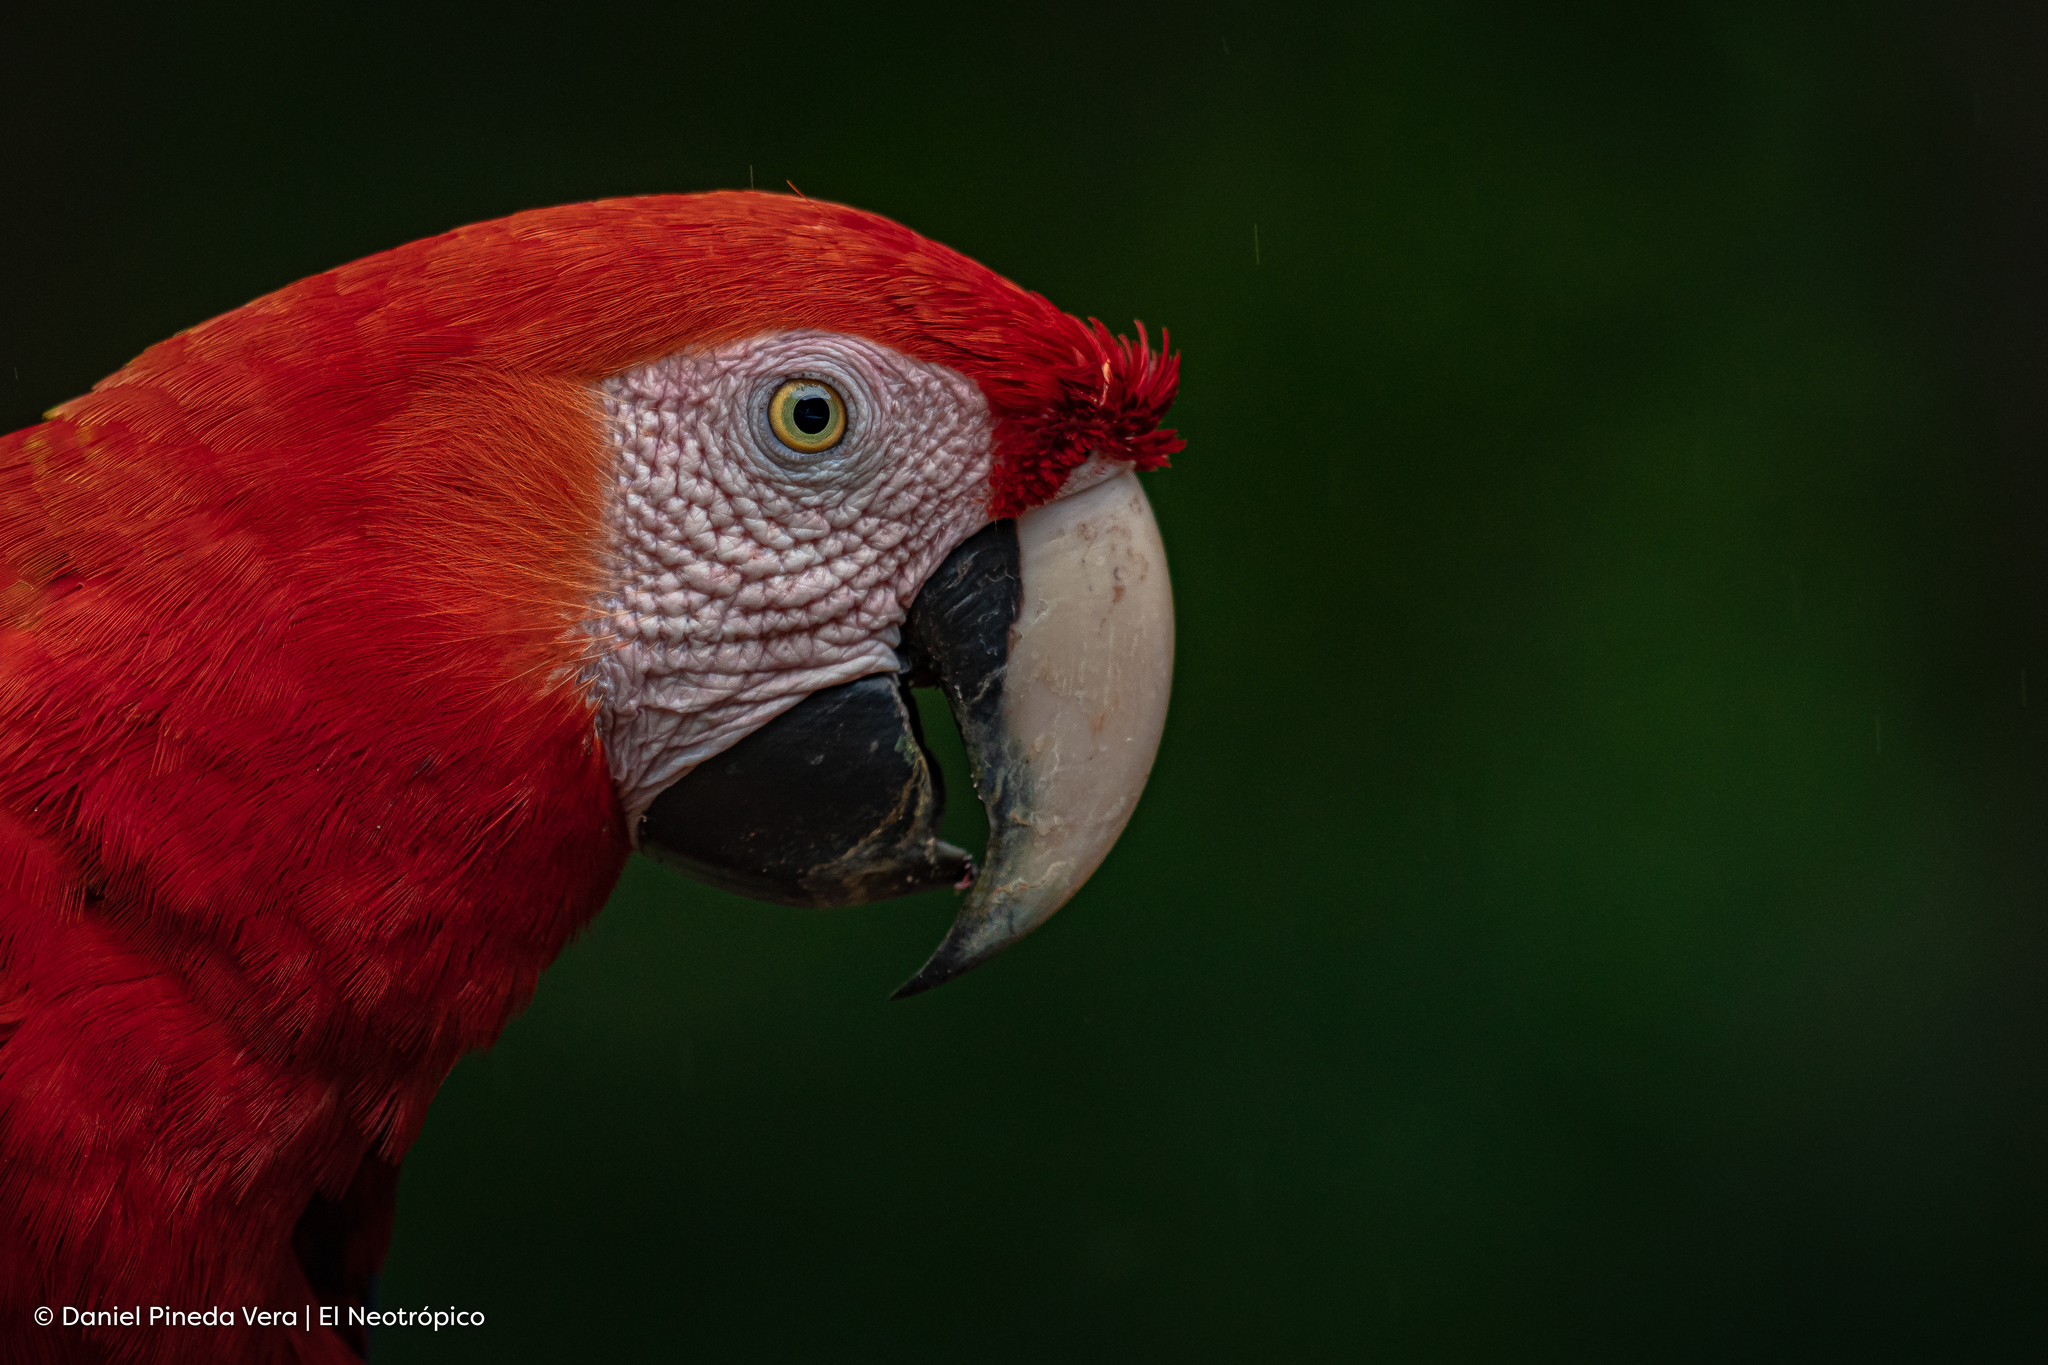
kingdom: Animalia
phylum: Chordata
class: Aves
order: Psittaciformes
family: Psittacidae
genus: Ara
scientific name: Ara macao
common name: Scarlet macaw
